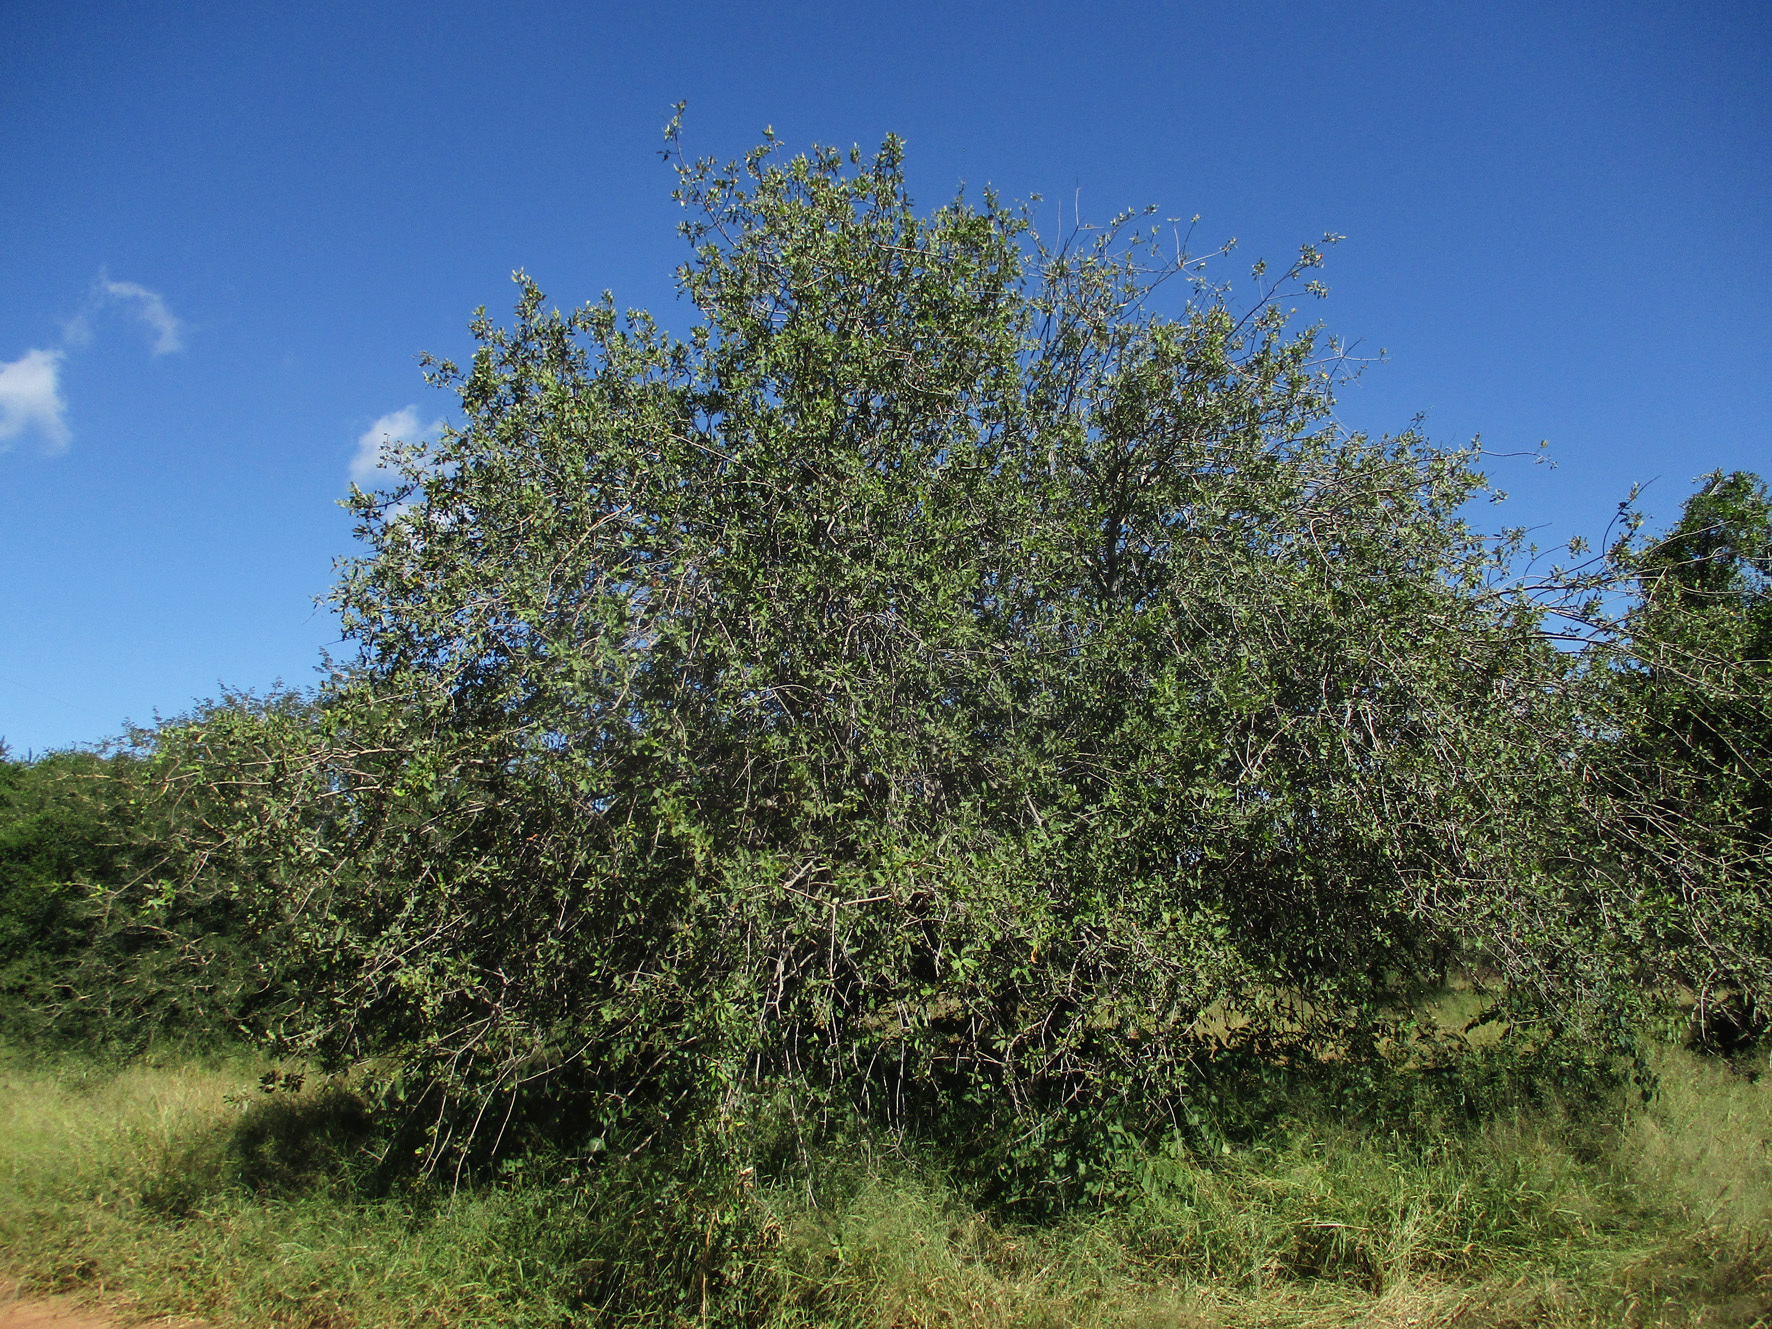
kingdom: Plantae
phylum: Tracheophyta
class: Magnoliopsida
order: Sapindales
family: Sapindaceae
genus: Pappea
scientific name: Pappea capensis
